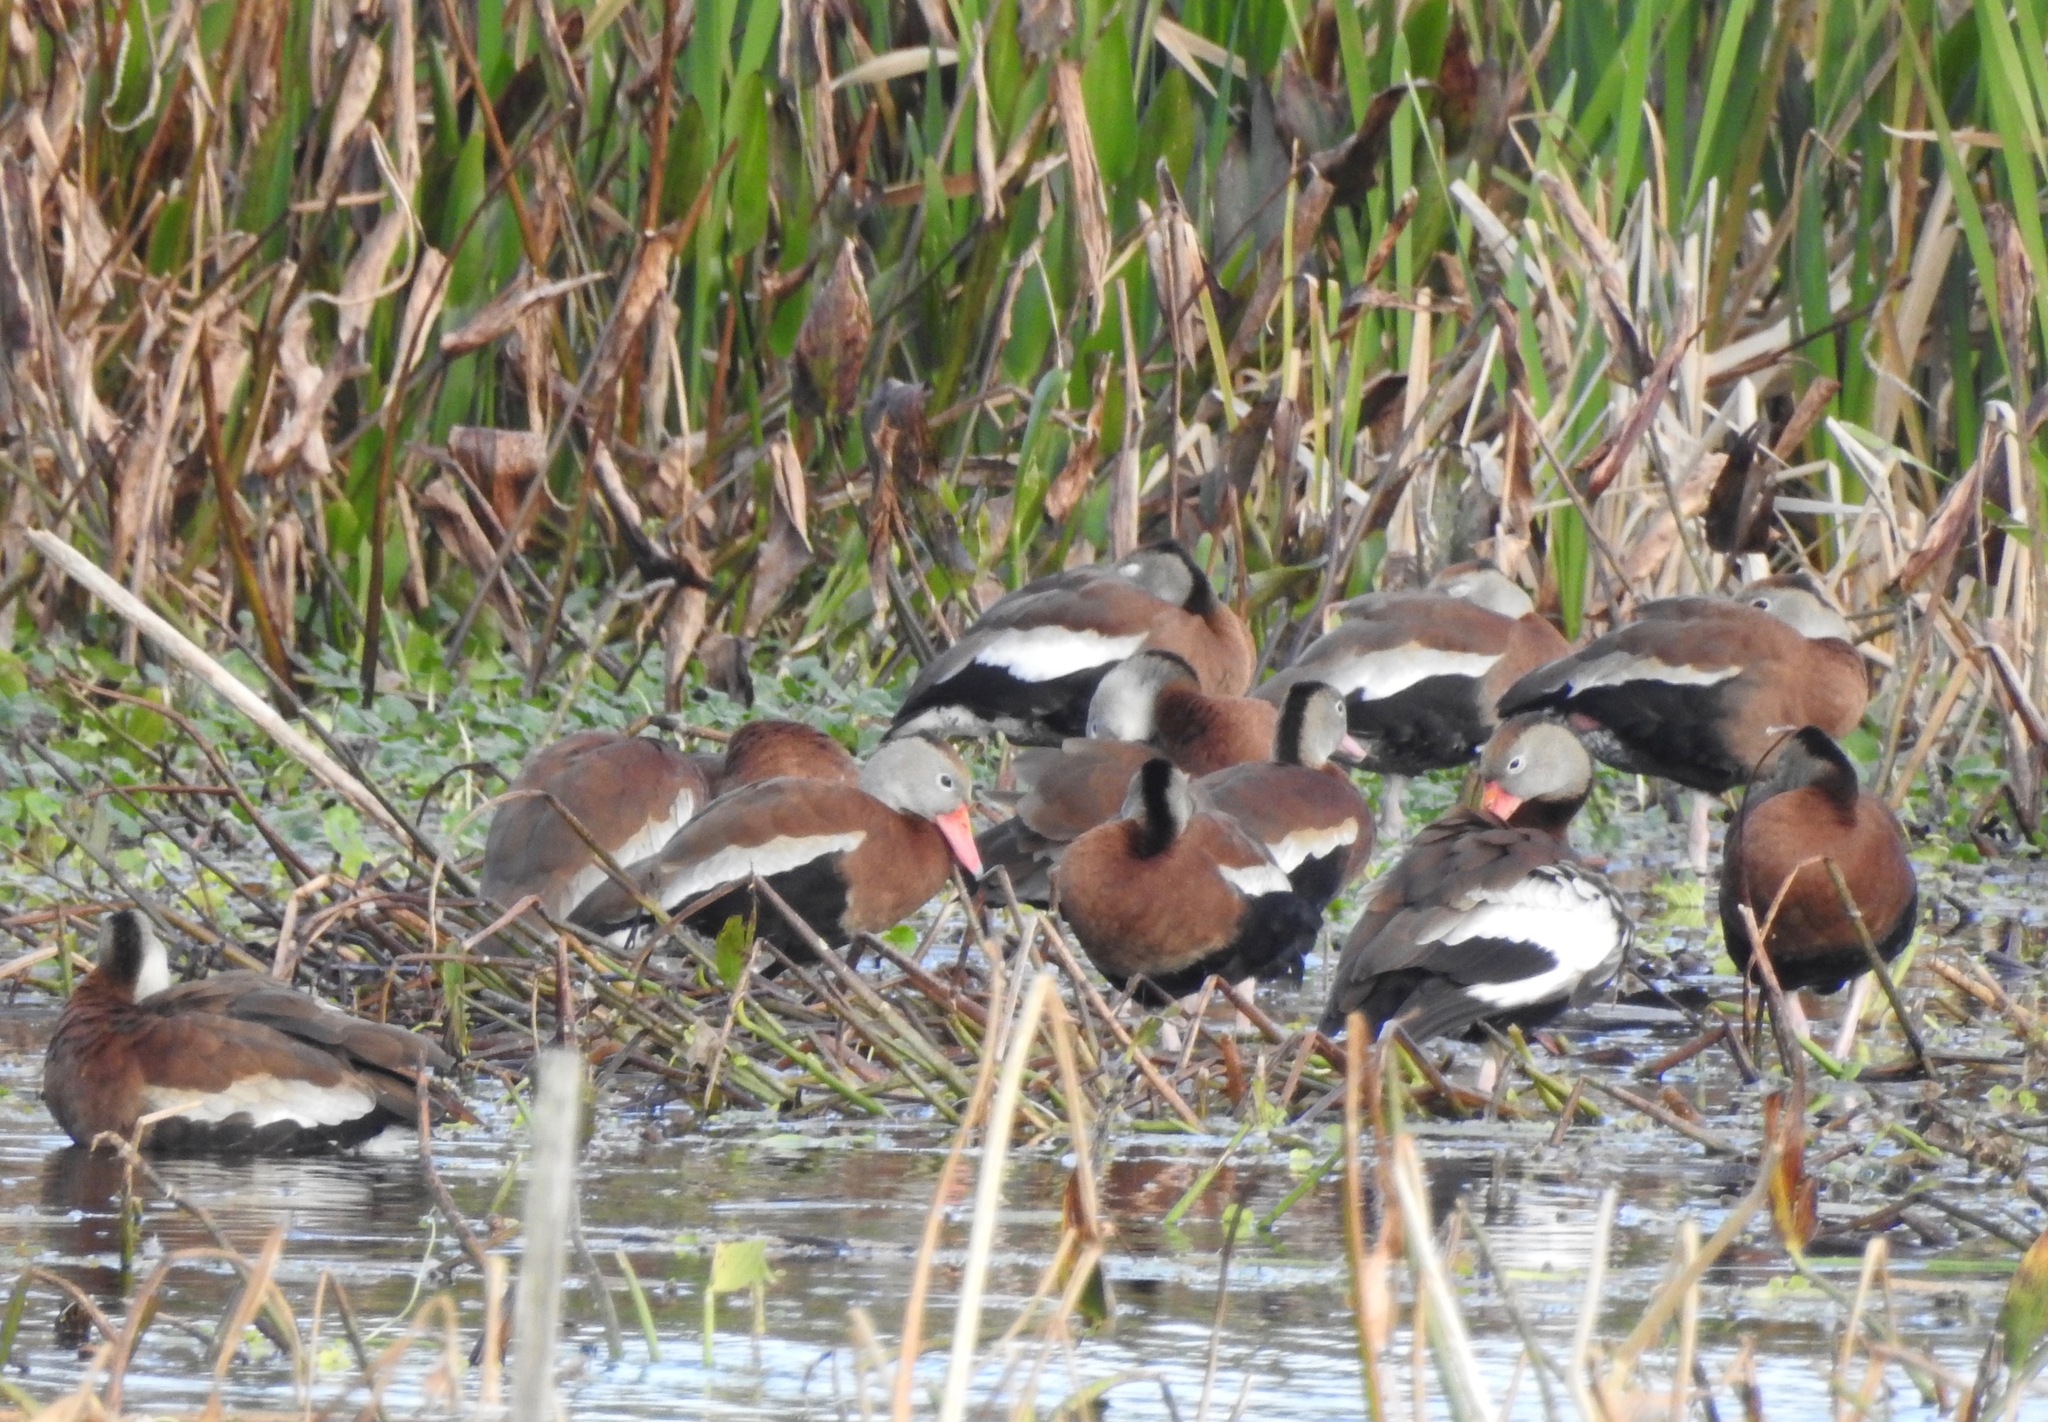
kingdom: Animalia
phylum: Chordata
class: Aves
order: Anseriformes
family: Anatidae
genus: Dendrocygna
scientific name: Dendrocygna autumnalis
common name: Black-bellied whistling duck
